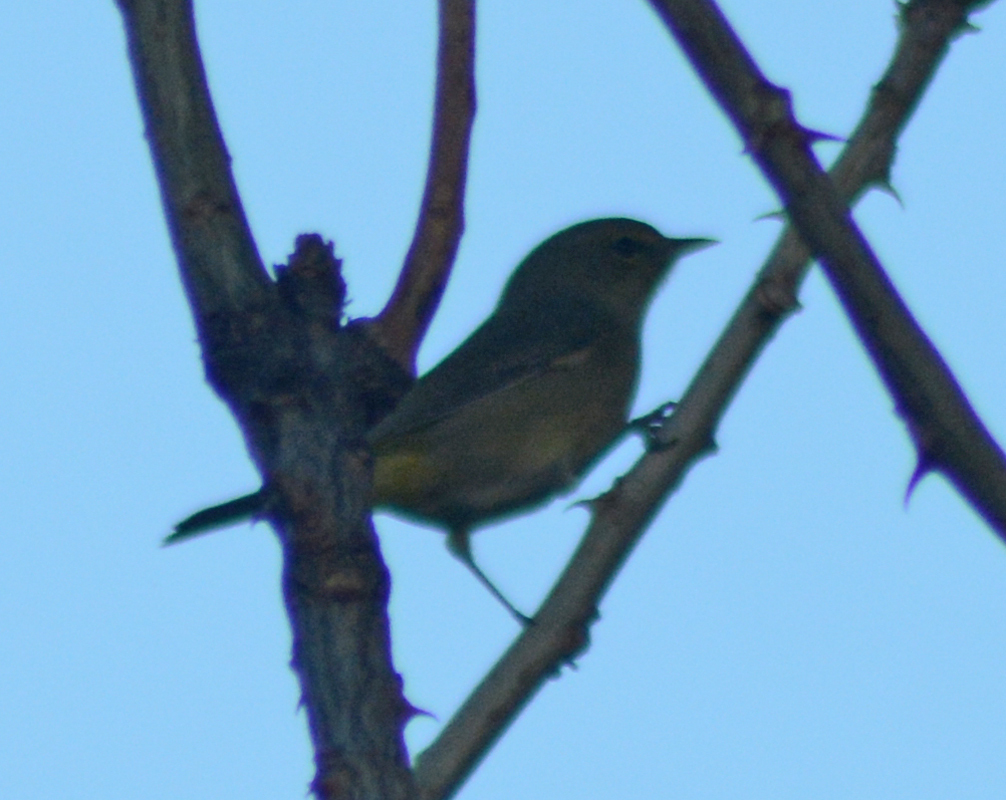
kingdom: Animalia
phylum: Chordata
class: Aves
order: Passeriformes
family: Parulidae
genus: Leiothlypis
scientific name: Leiothlypis celata
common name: Orange-crowned warbler
